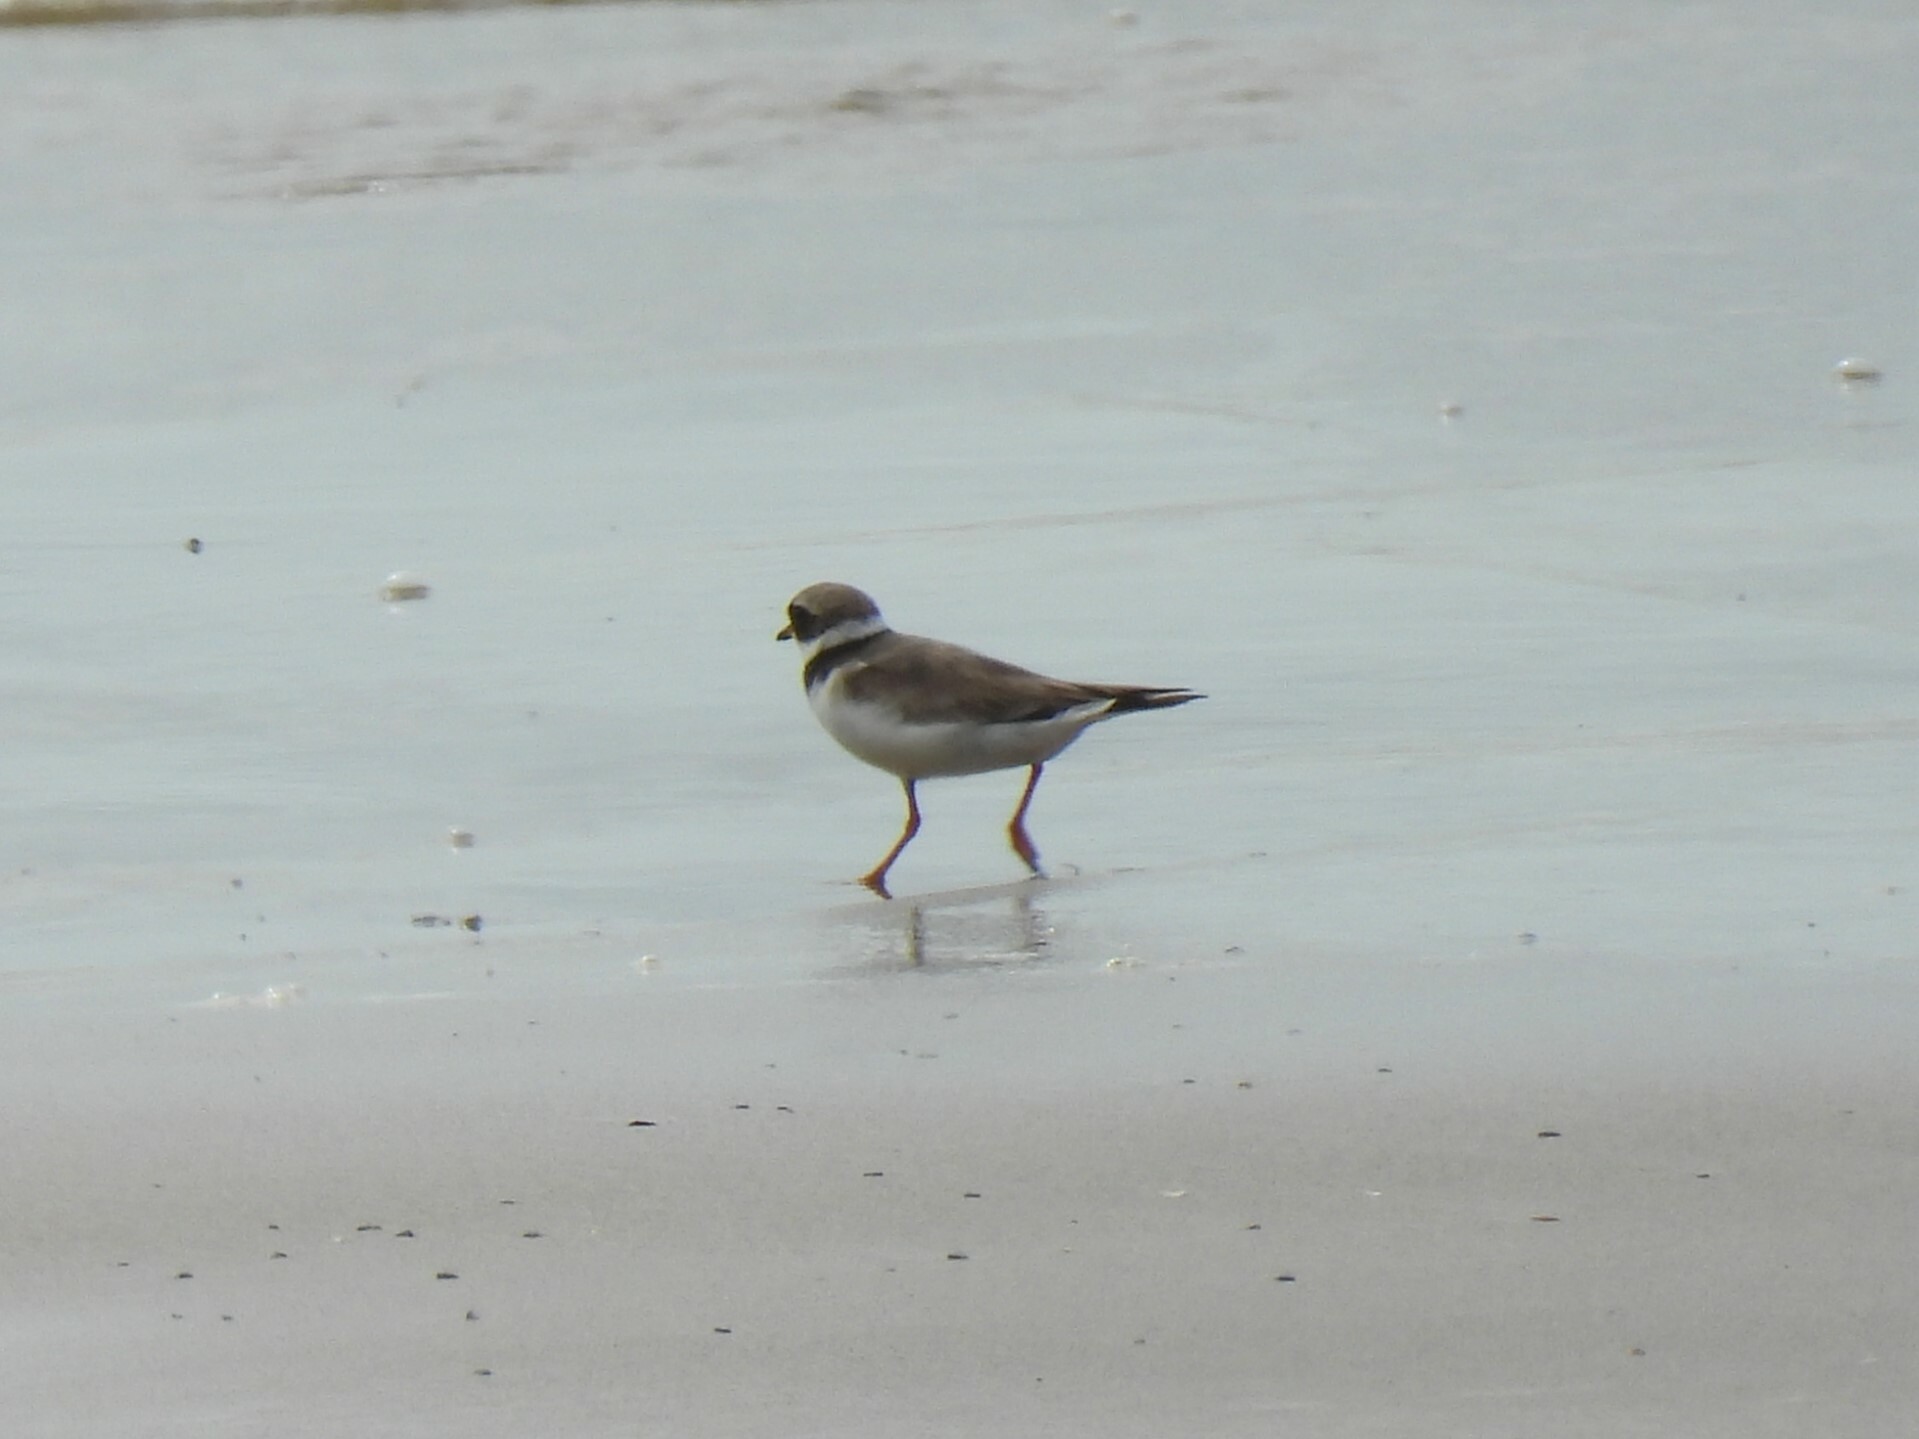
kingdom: Animalia
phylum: Chordata
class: Aves
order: Charadriiformes
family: Charadriidae
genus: Charadrius
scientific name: Charadrius hiaticula
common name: Common ringed plover
